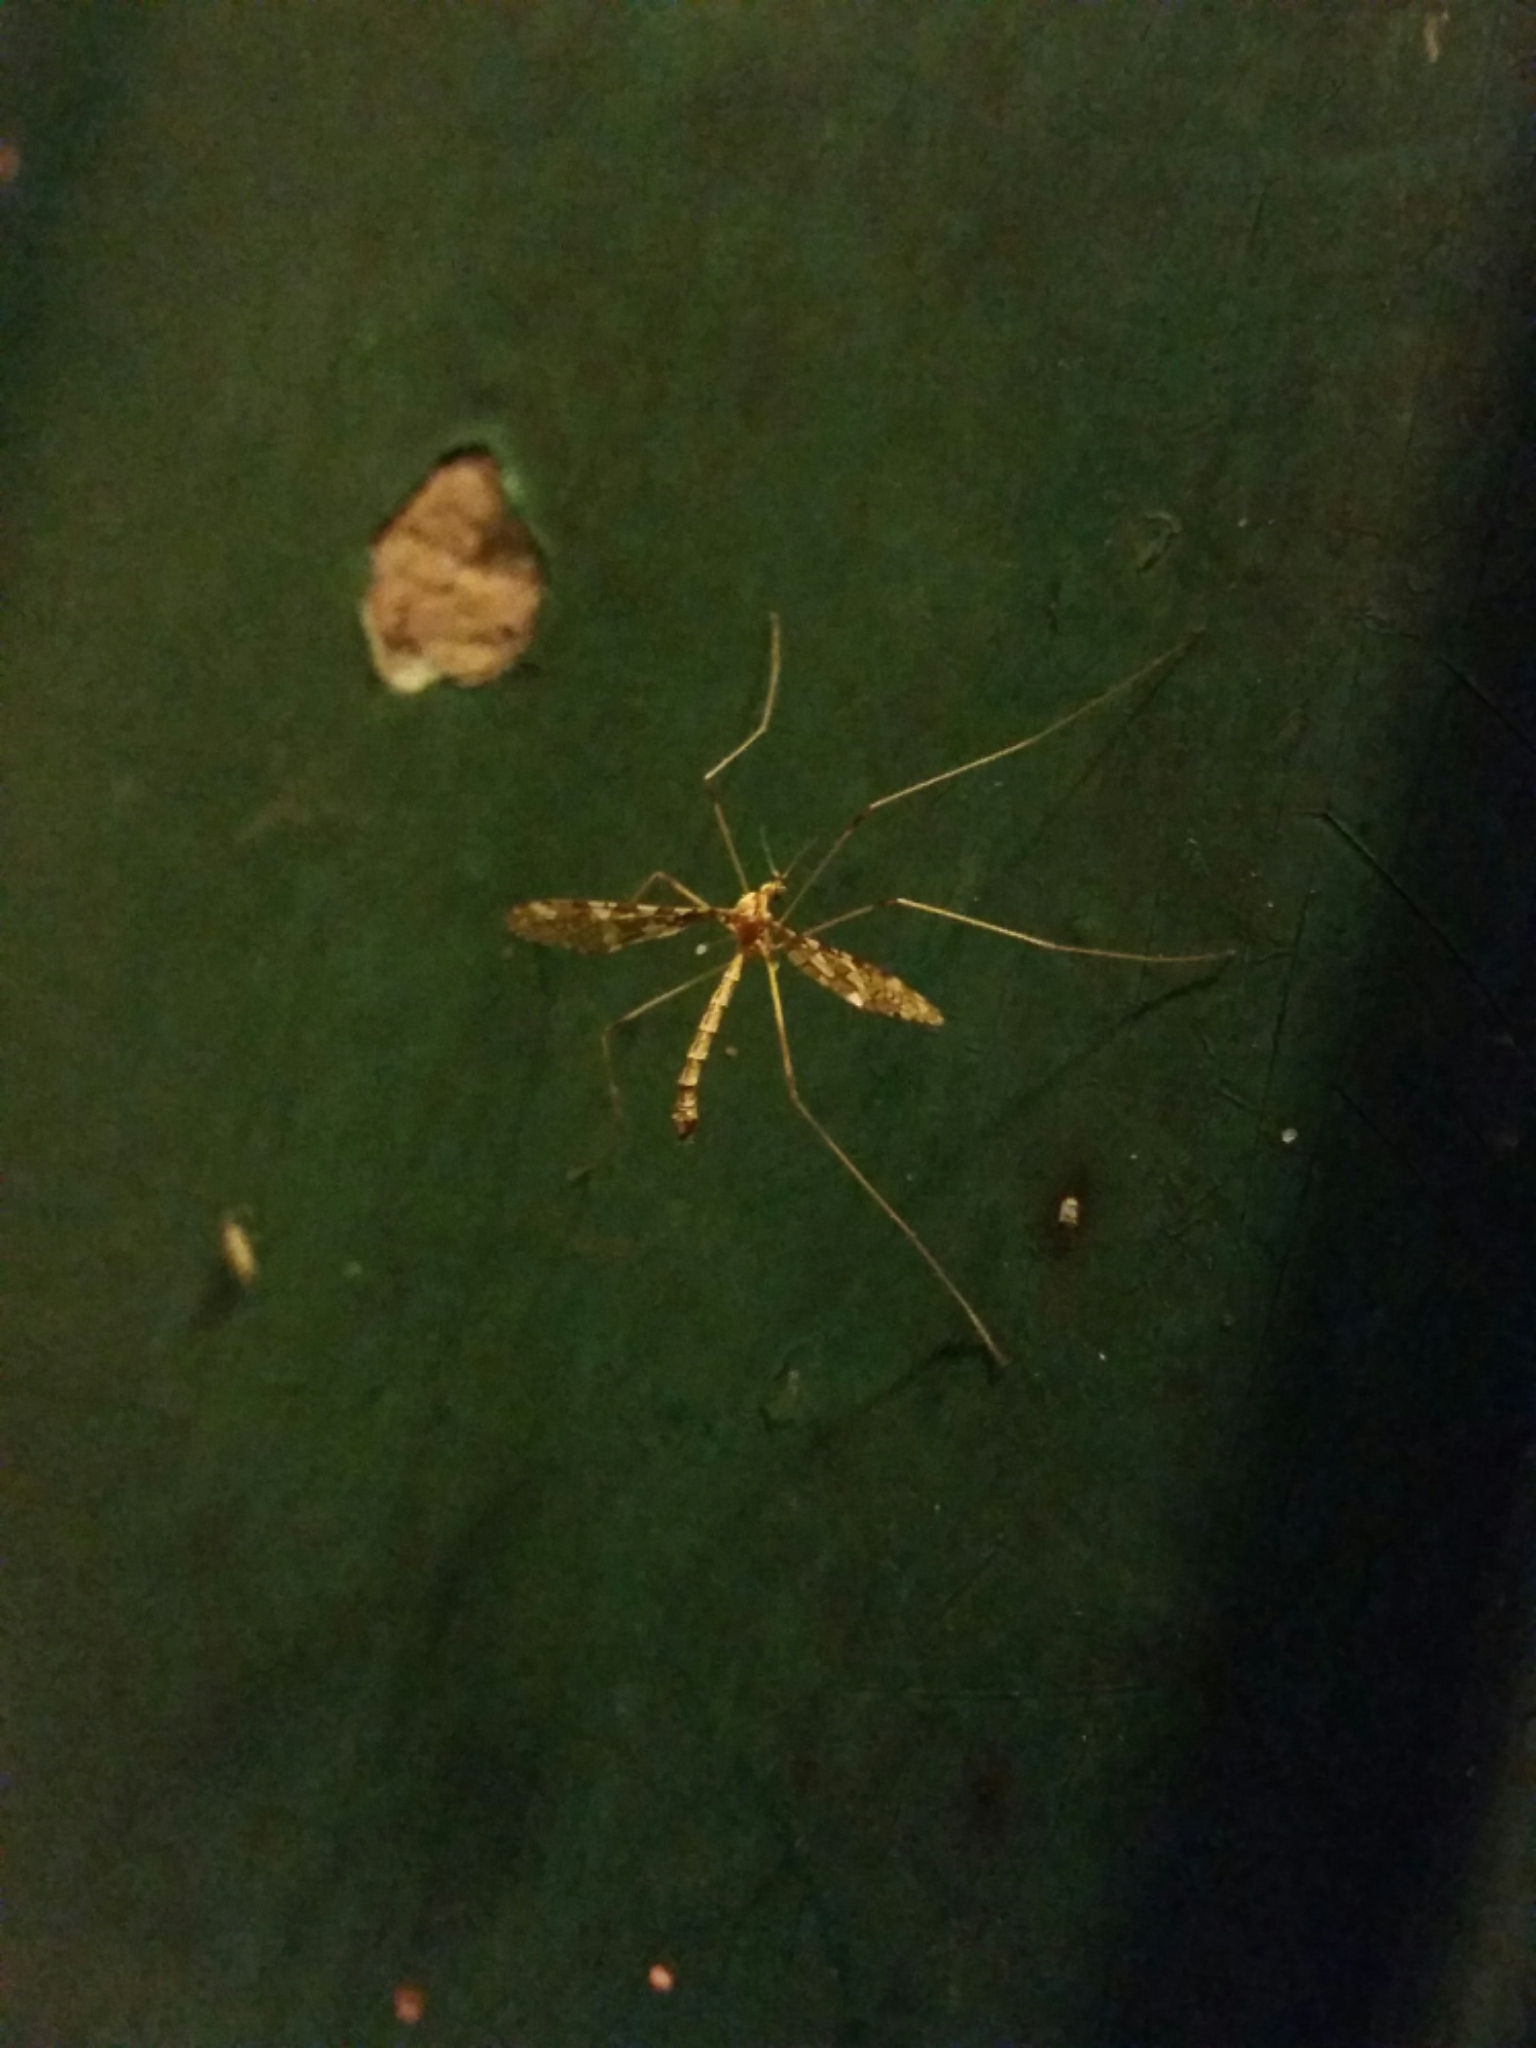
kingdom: Animalia
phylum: Arthropoda
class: Insecta
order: Diptera
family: Limoniidae
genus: Epiphragma
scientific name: Epiphragma fasciapenne
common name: Band-winged crane fly
